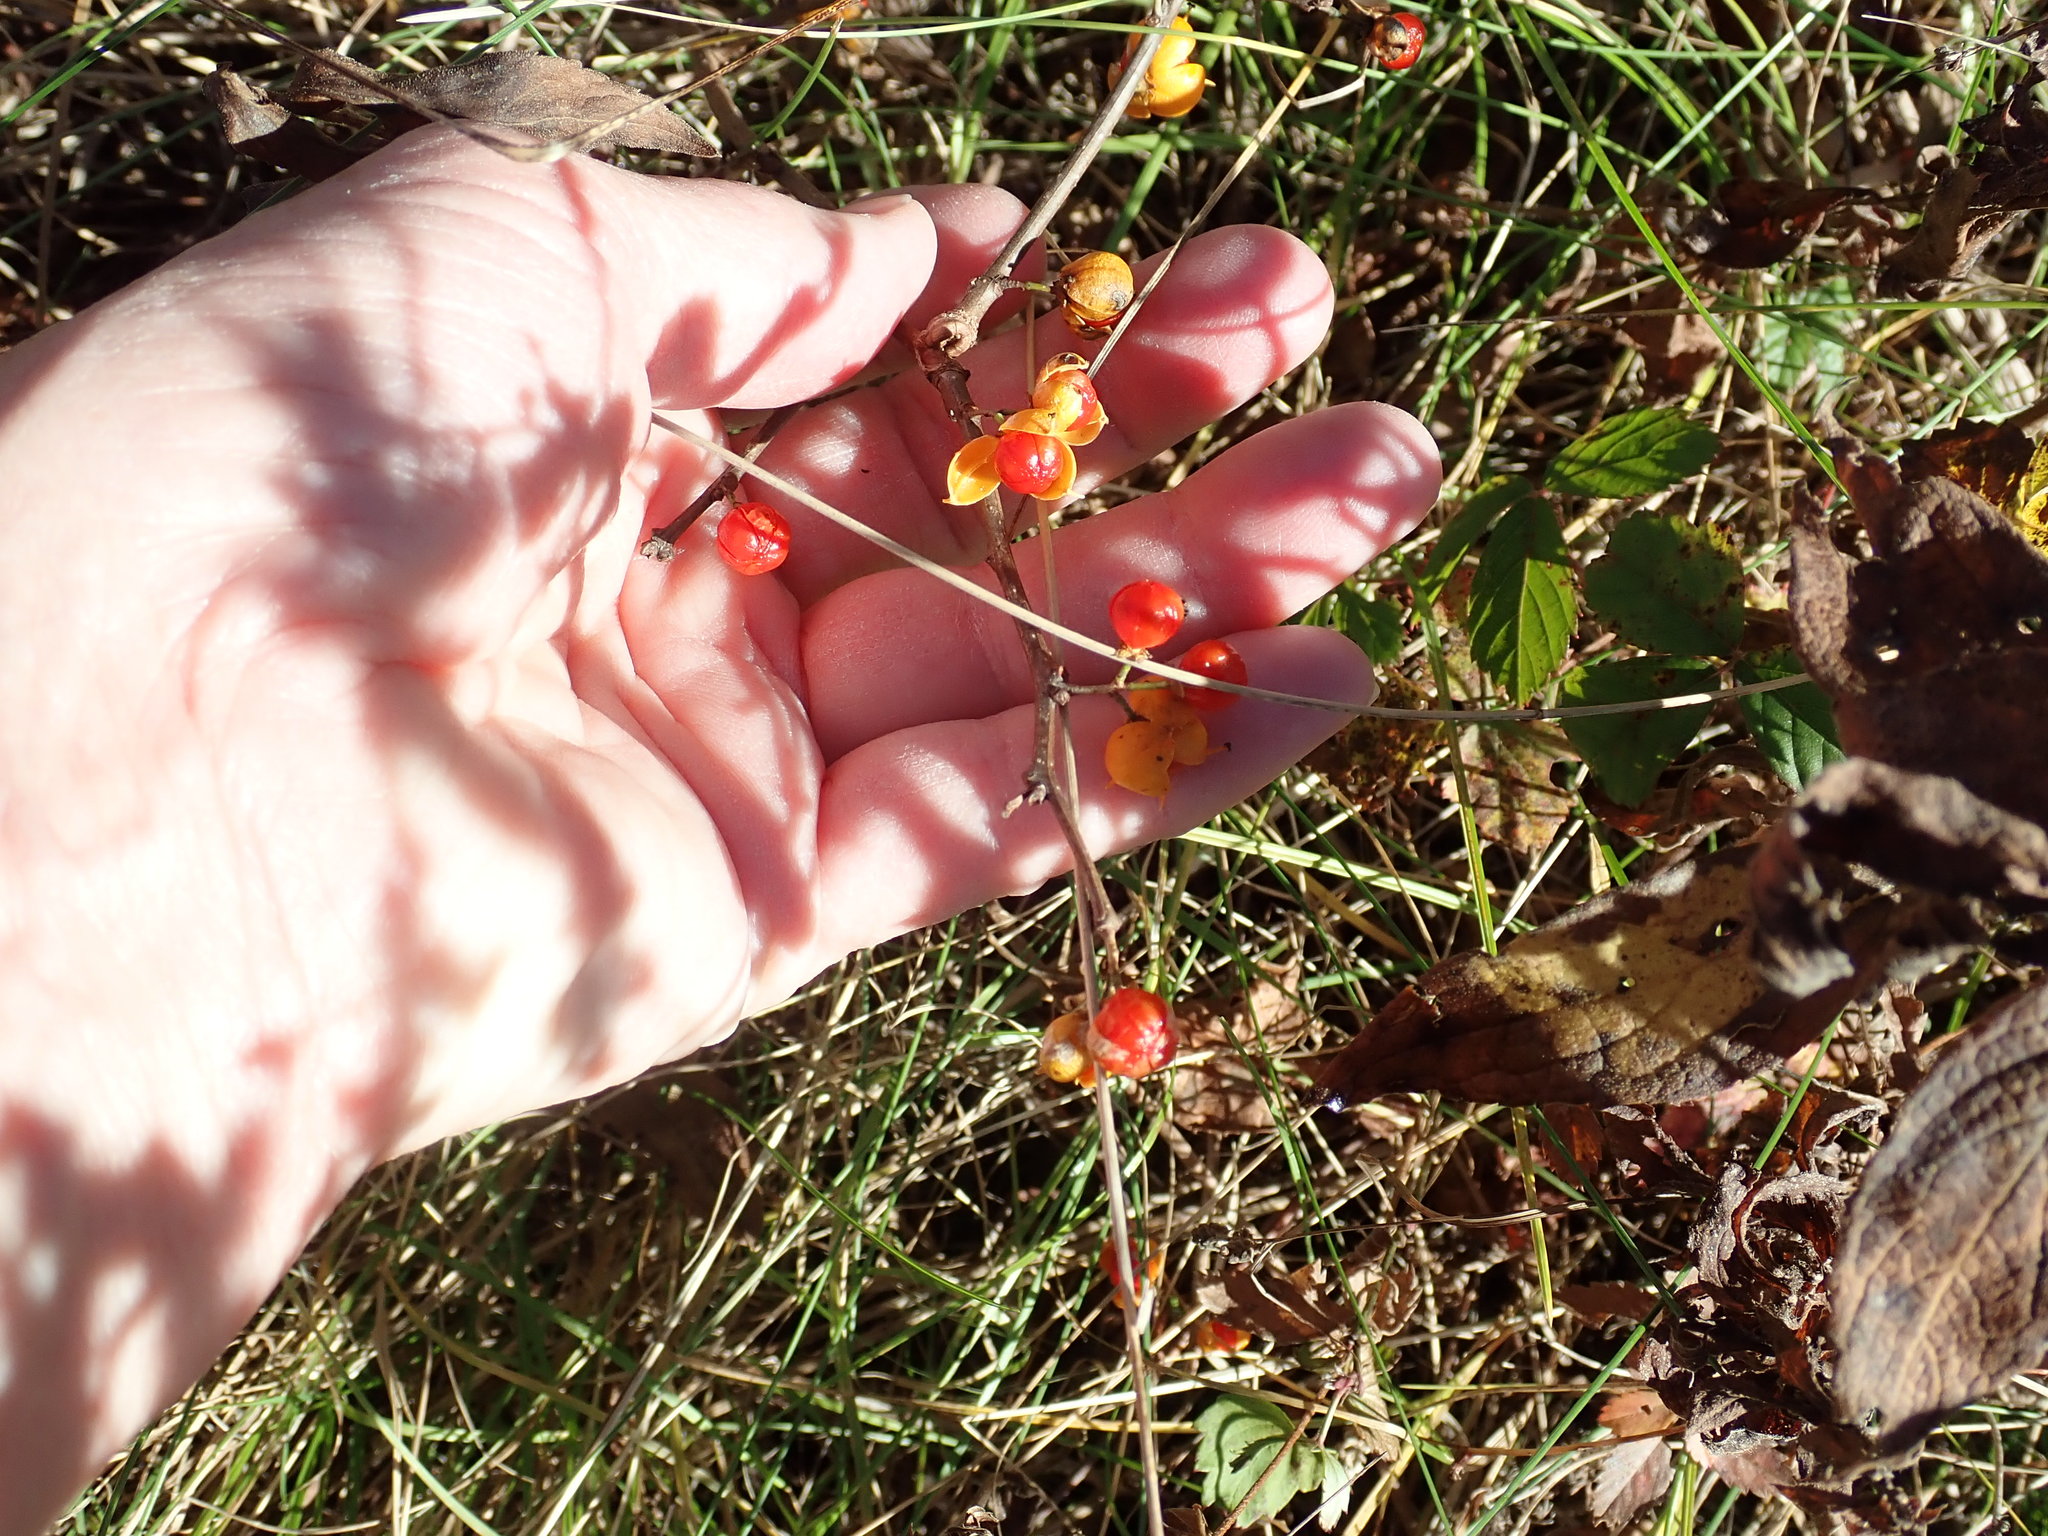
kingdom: Plantae
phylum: Tracheophyta
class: Magnoliopsida
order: Celastrales
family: Celastraceae
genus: Celastrus
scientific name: Celastrus orbiculatus
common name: Oriental bittersweet
